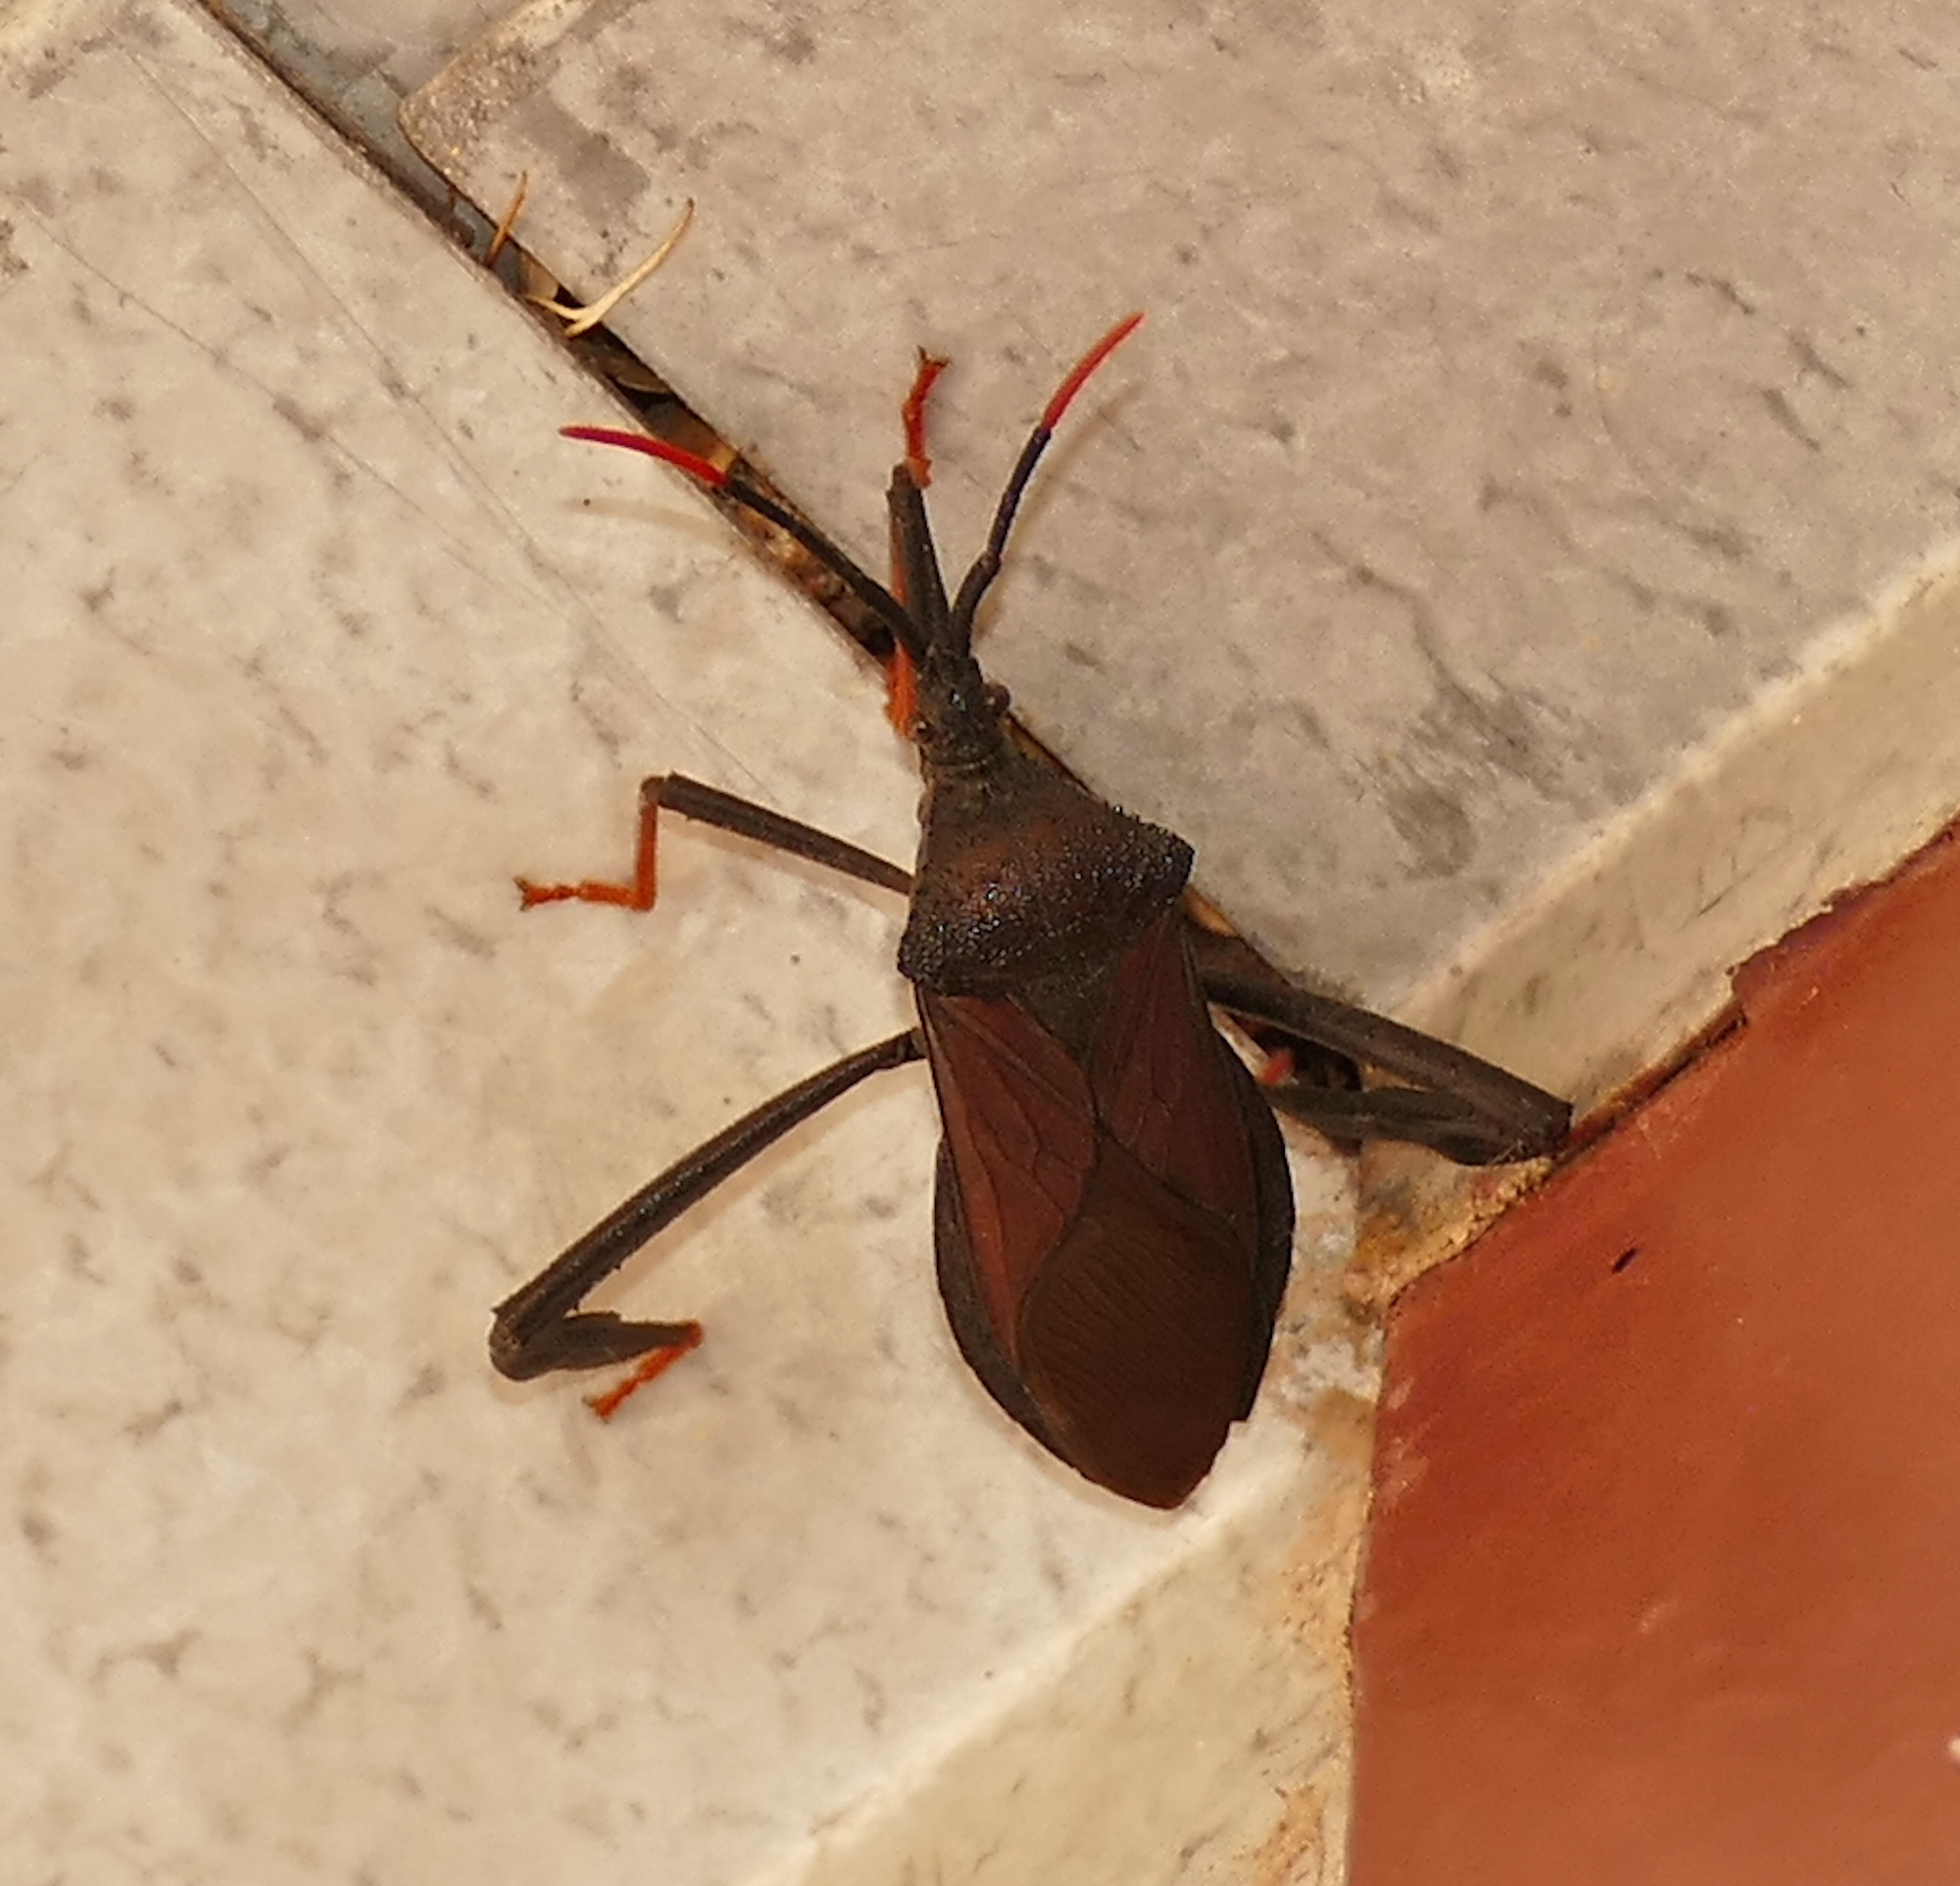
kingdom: Animalia
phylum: Arthropoda
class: Insecta
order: Hemiptera
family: Coreidae
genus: Acanthocephala
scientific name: Acanthocephala thomasi
